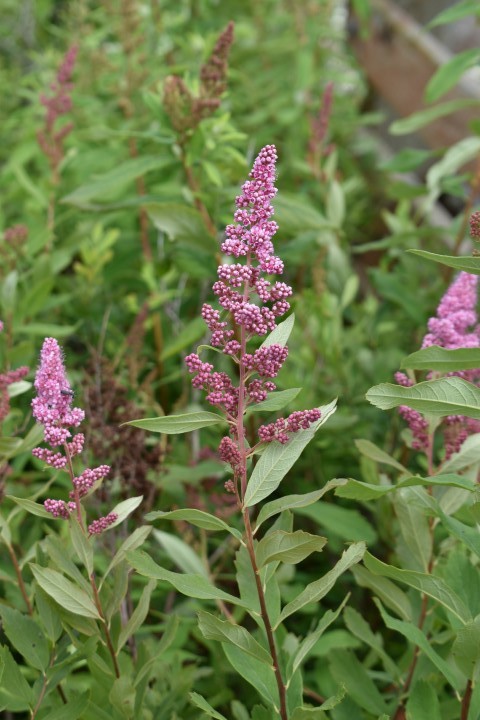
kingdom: Plantae
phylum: Tracheophyta
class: Magnoliopsida
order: Rosales
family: Rosaceae
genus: Spiraea
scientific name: Spiraea douglasii
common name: Steeplebush
